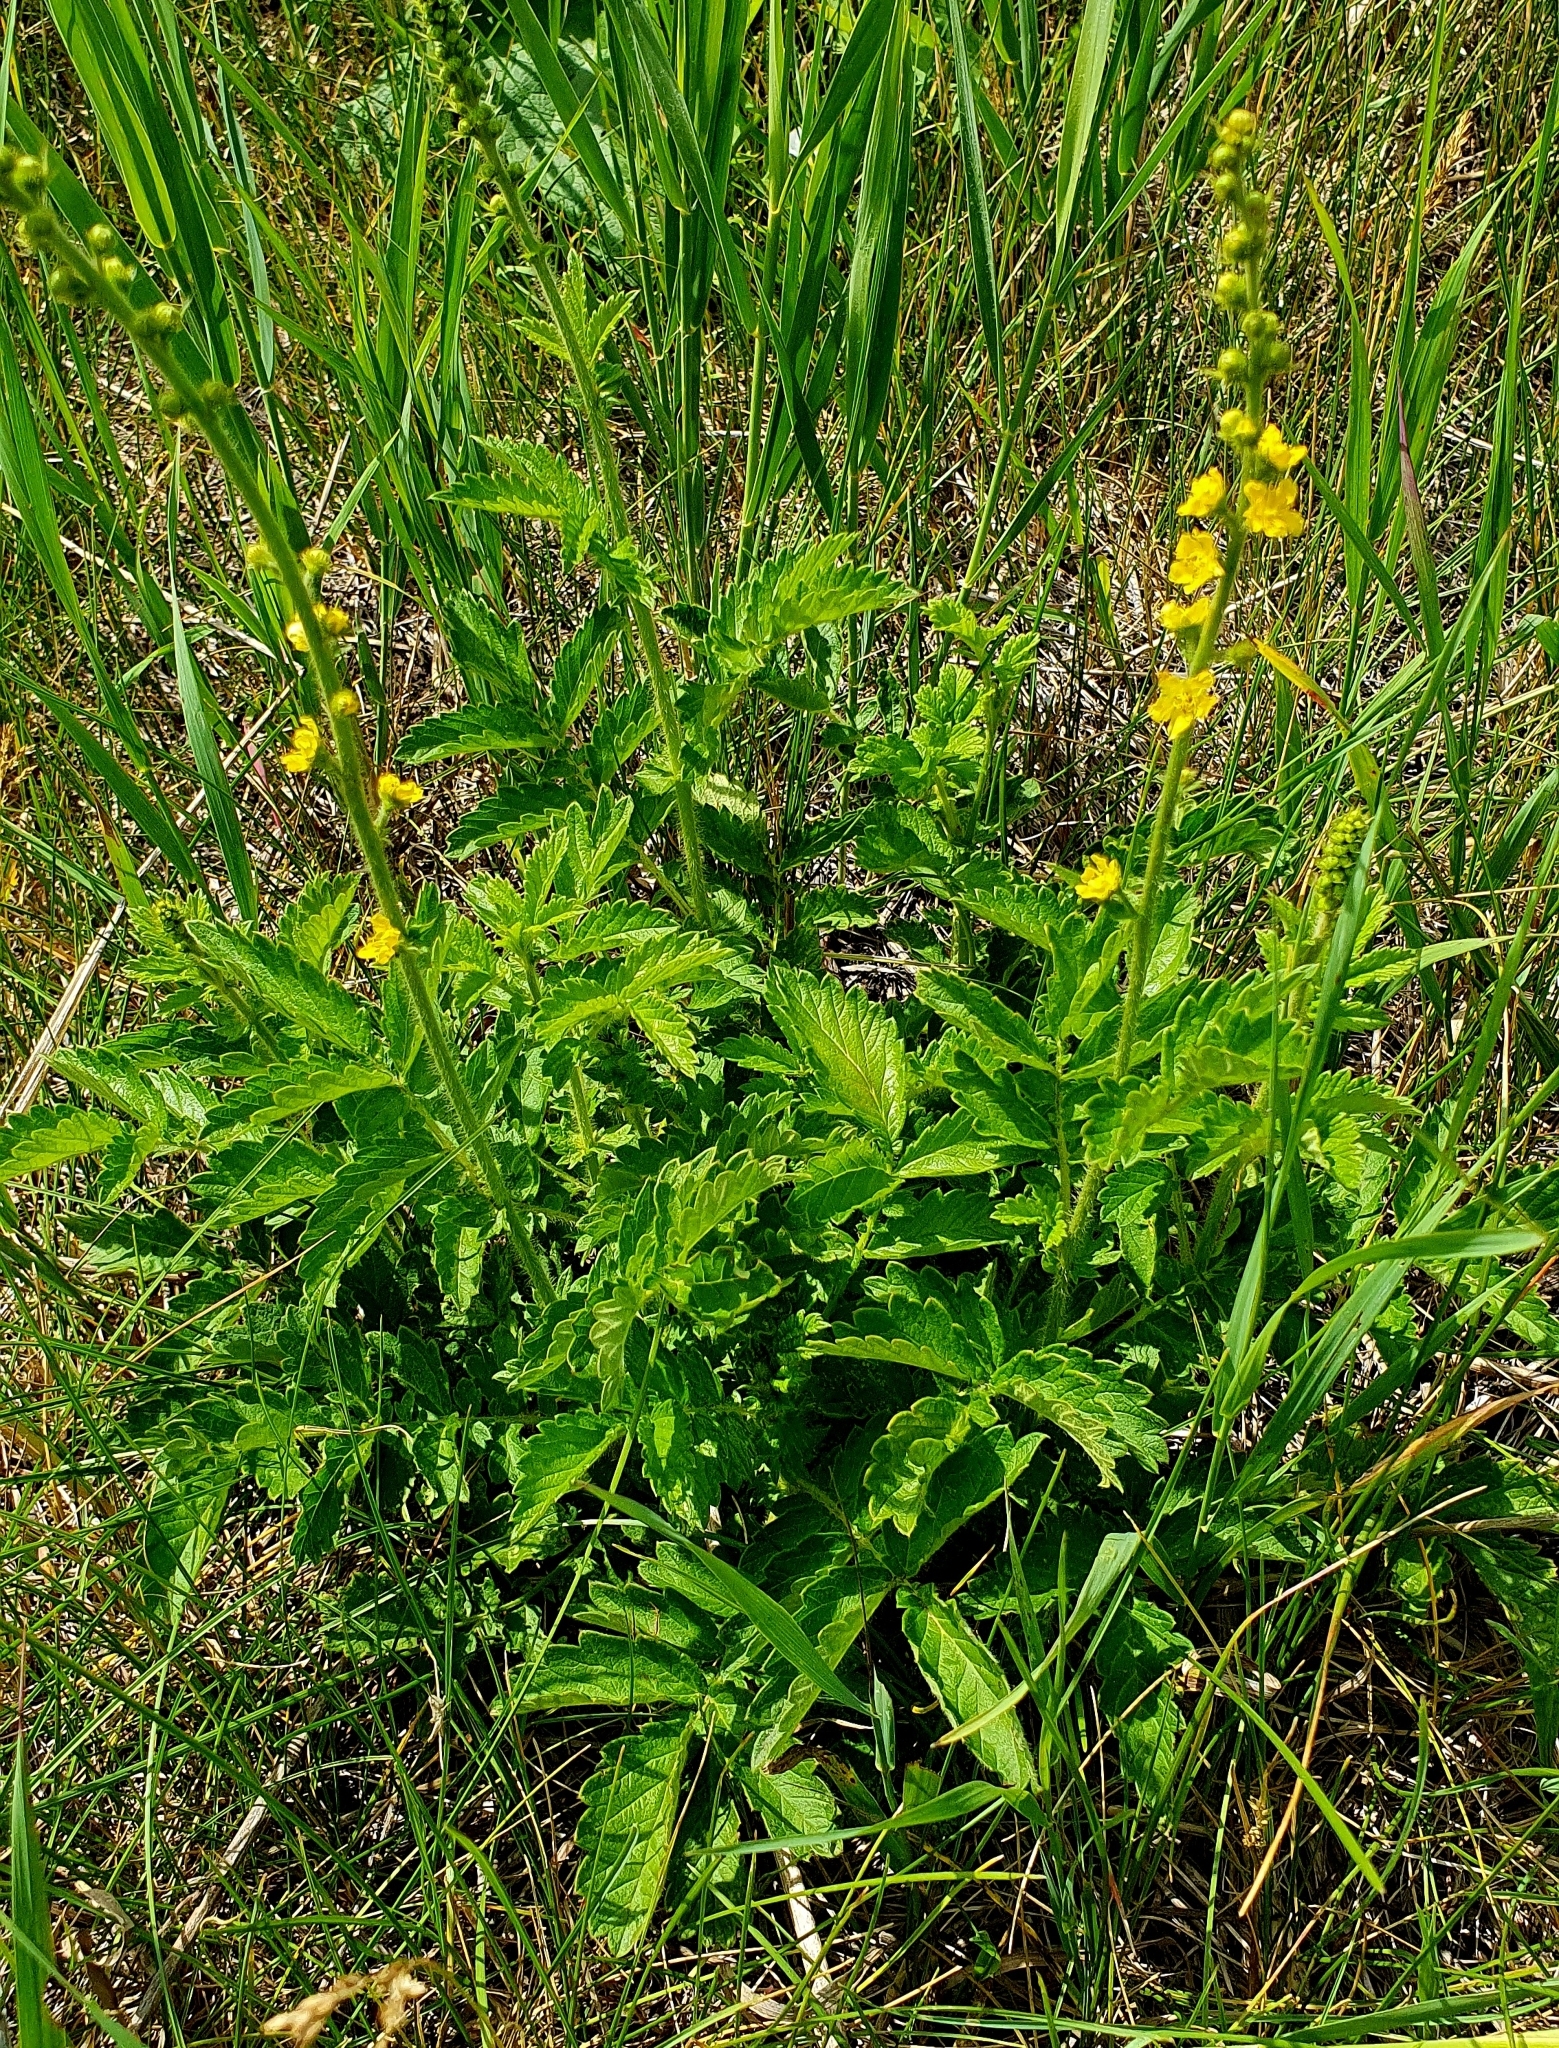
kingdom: Plantae
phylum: Tracheophyta
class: Magnoliopsida
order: Rosales
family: Rosaceae
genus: Agrimonia
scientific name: Agrimonia eupatoria
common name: Agrimony
